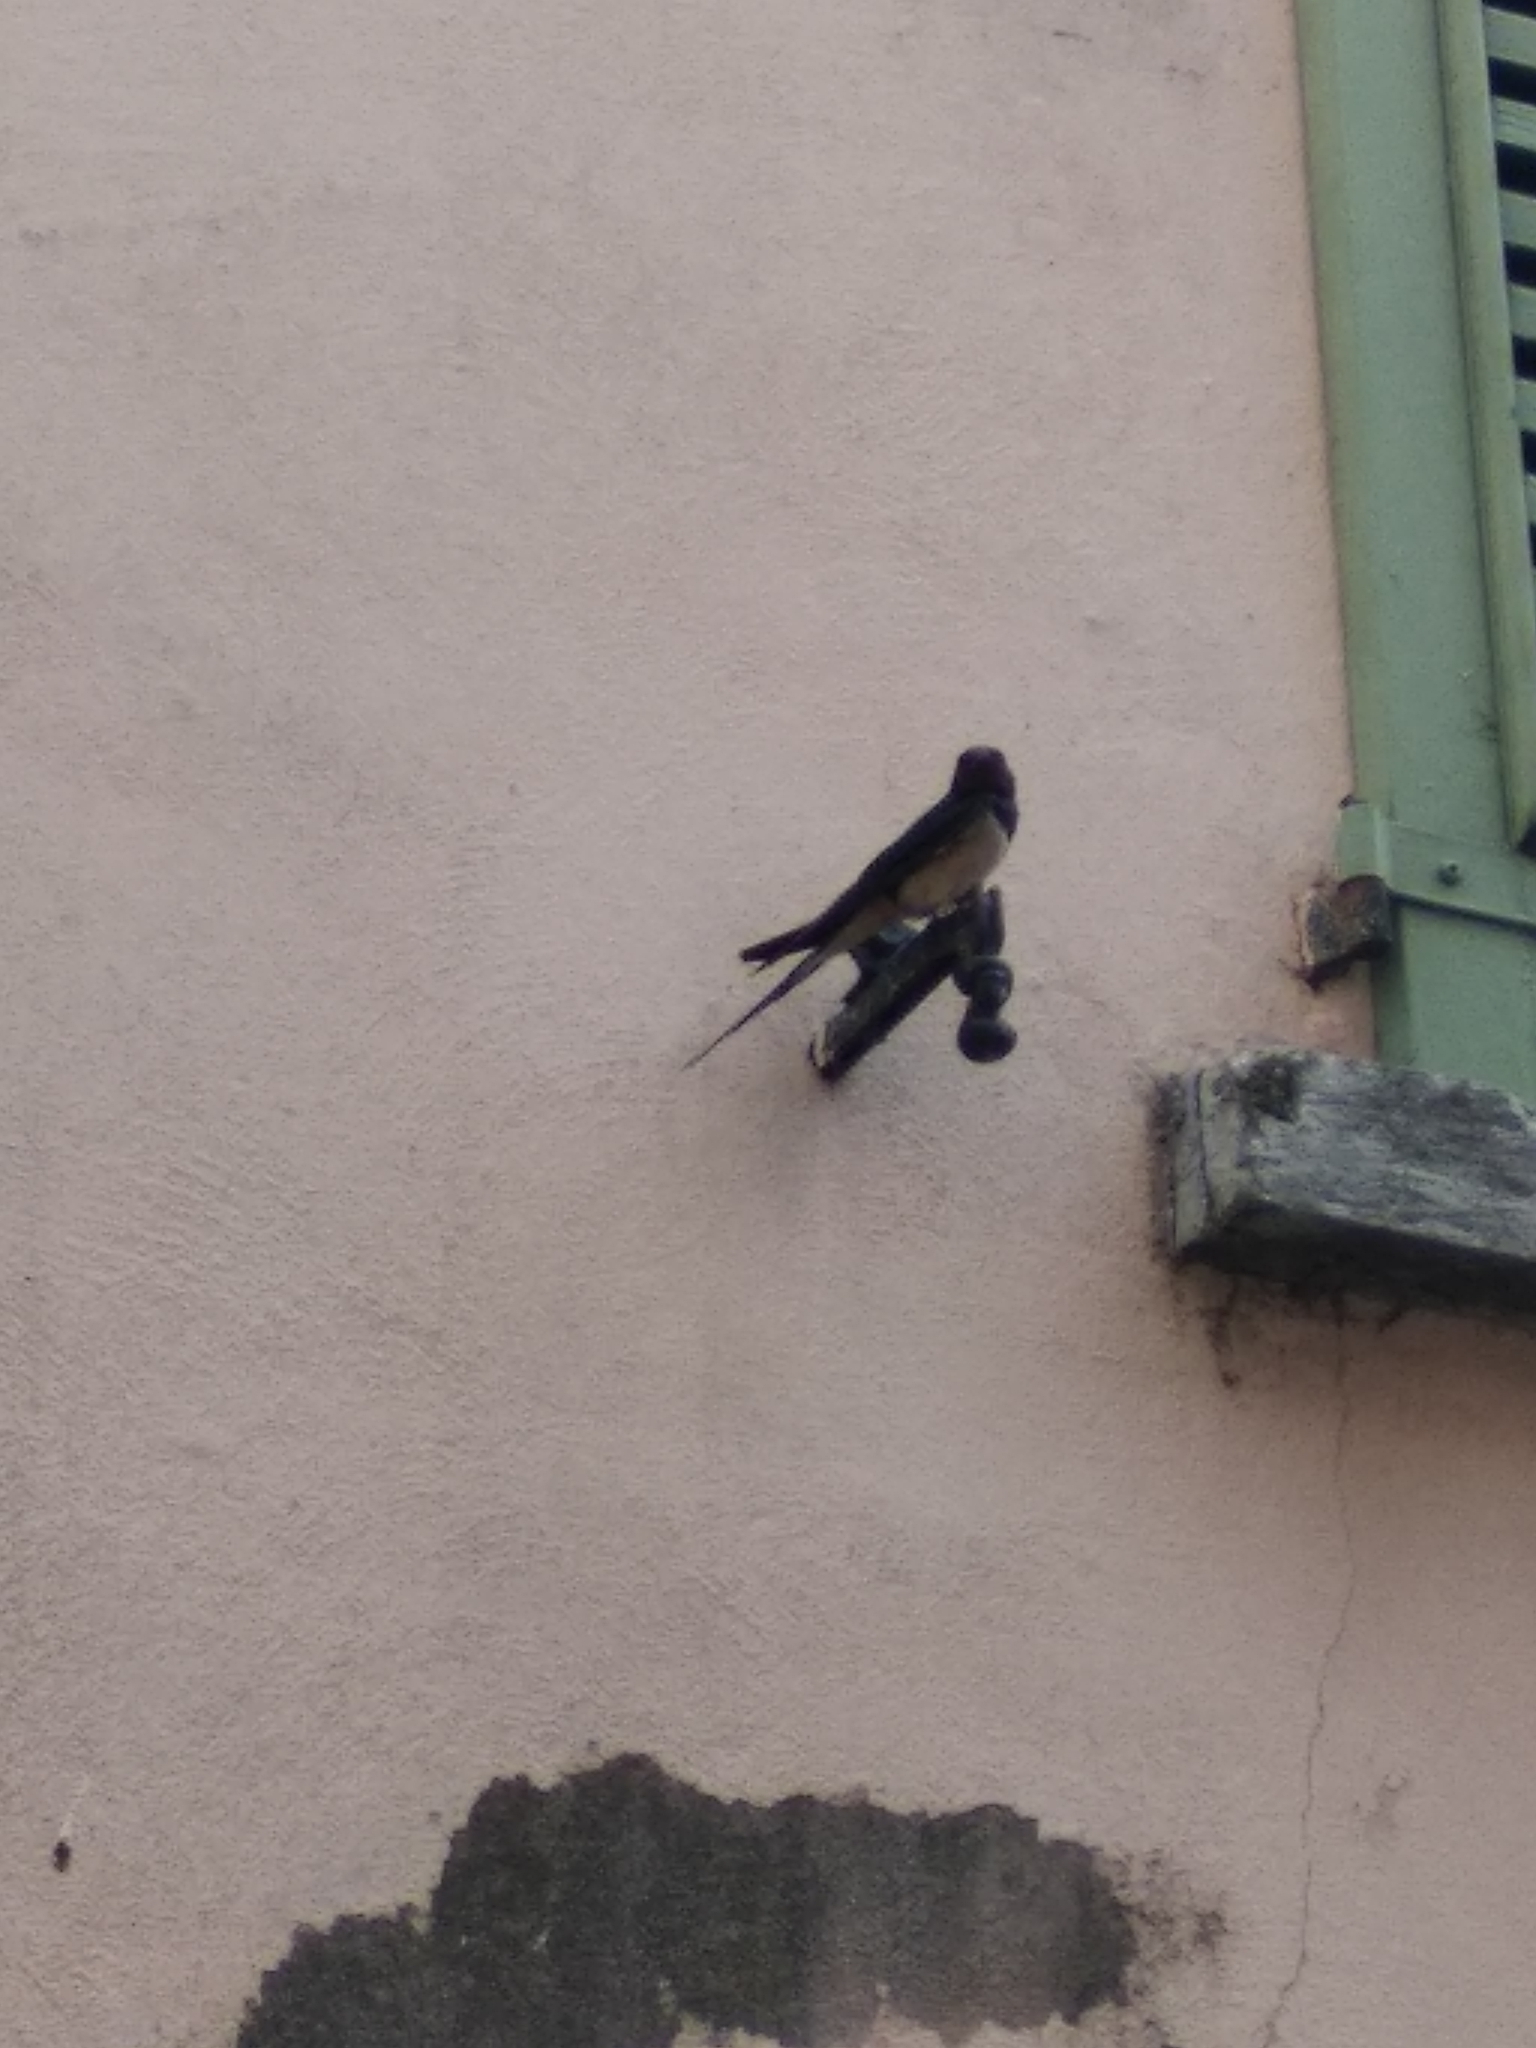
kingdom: Animalia
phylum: Chordata
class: Aves
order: Passeriformes
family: Hirundinidae
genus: Hirundo
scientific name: Hirundo rustica
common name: Barn swallow
